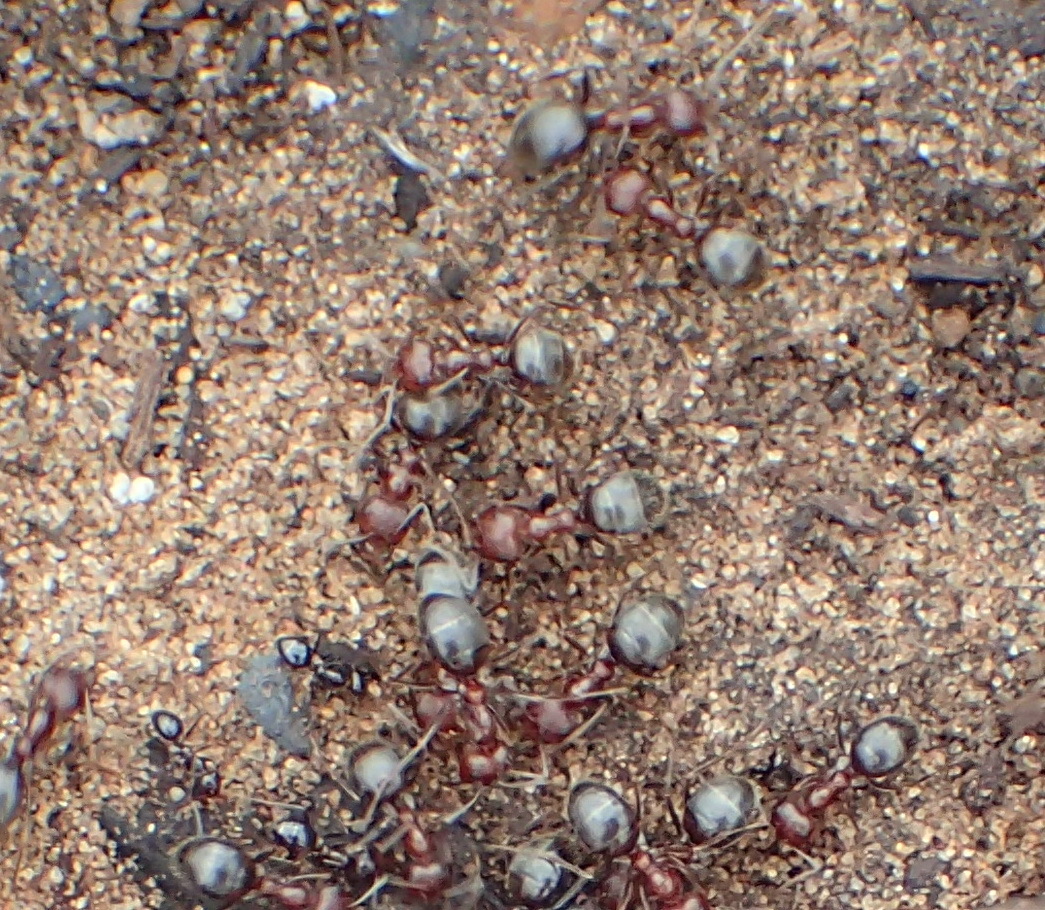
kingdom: Animalia
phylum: Arthropoda
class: Insecta
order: Hymenoptera
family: Formicidae
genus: Anoplolepis
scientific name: Anoplolepis steingroeveri
